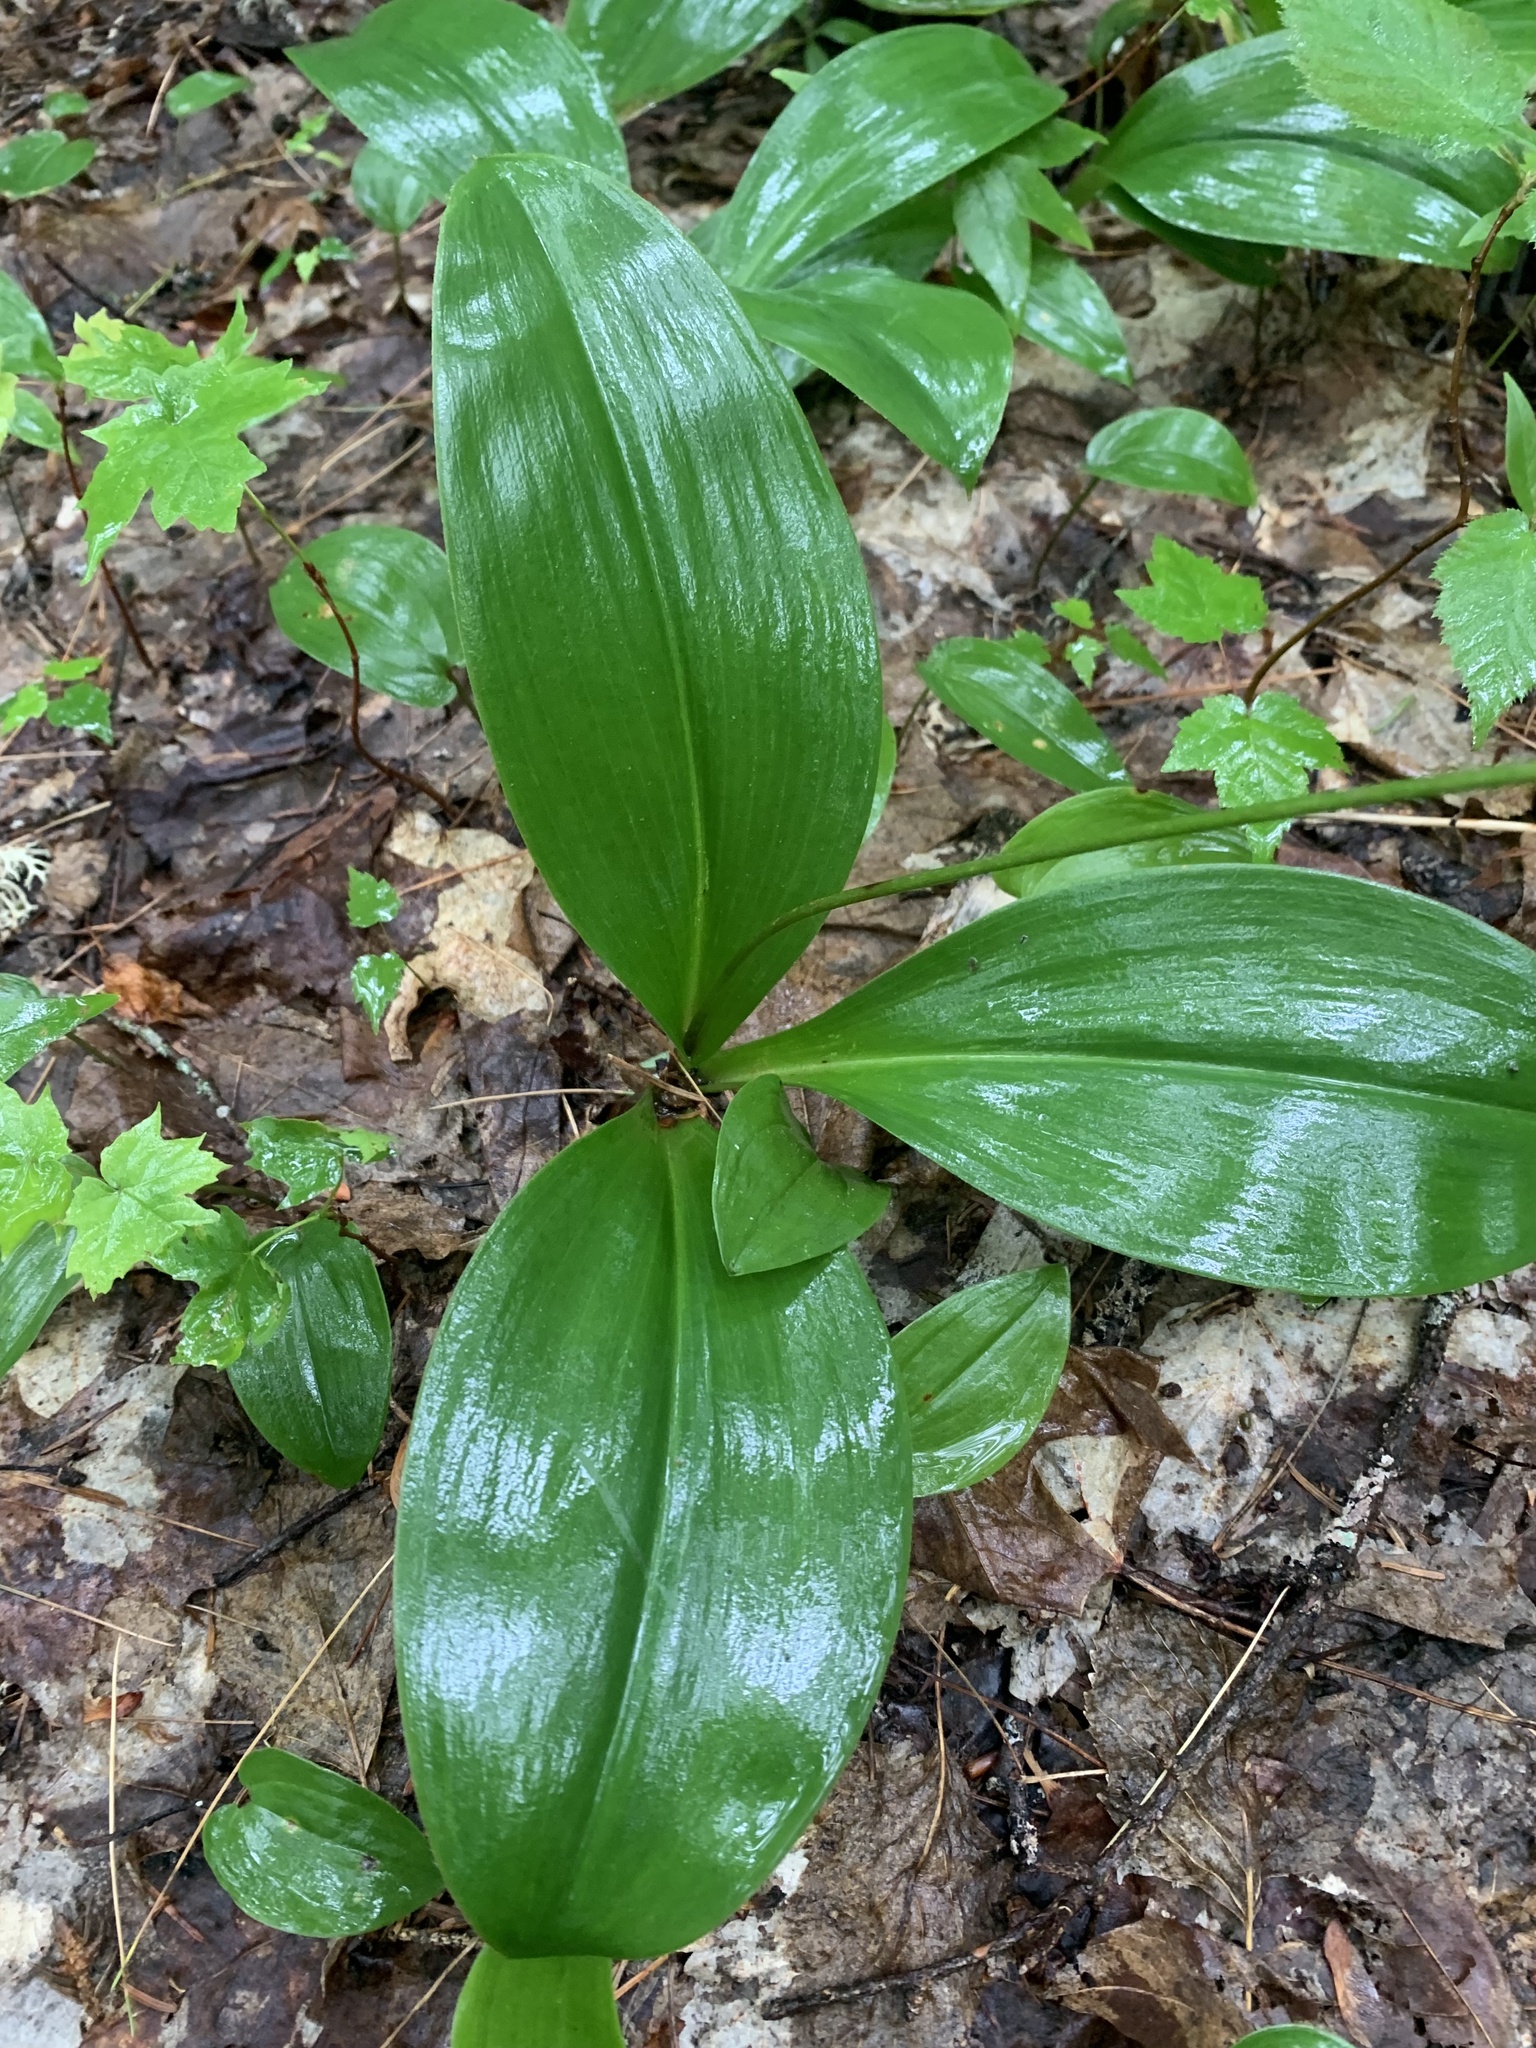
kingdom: Plantae
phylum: Tracheophyta
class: Liliopsida
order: Liliales
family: Liliaceae
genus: Clintonia
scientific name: Clintonia borealis
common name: Yellow clintonia
